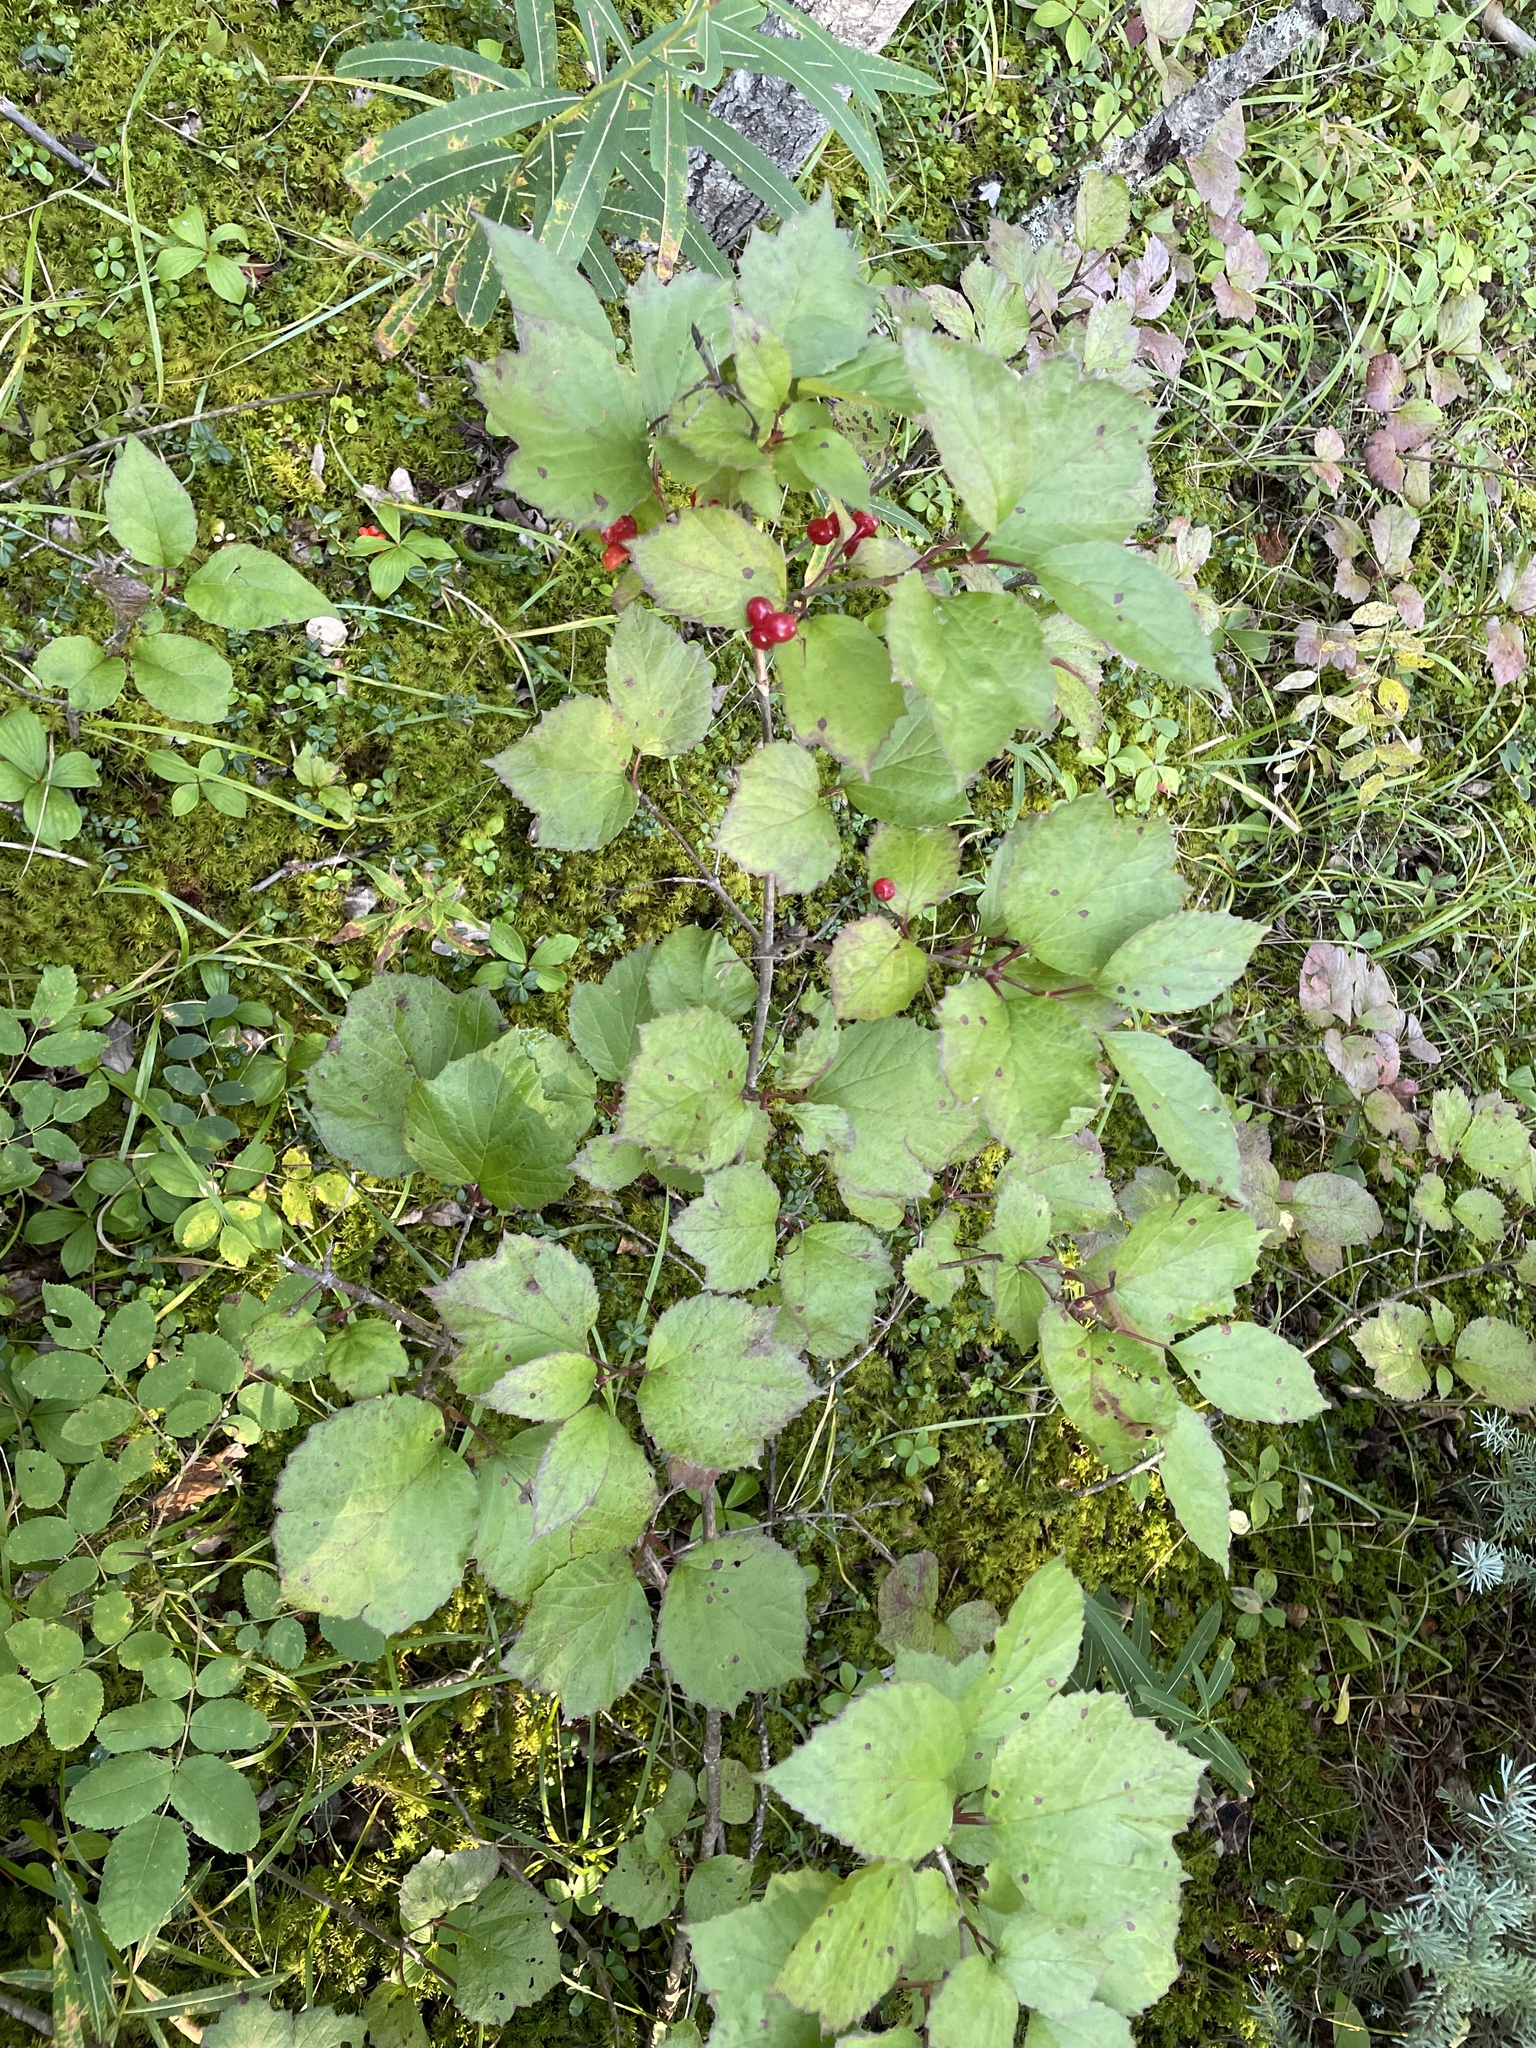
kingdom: Plantae
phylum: Tracheophyta
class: Magnoliopsida
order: Dipsacales
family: Viburnaceae
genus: Viburnum
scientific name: Viburnum edule
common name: Mooseberry
